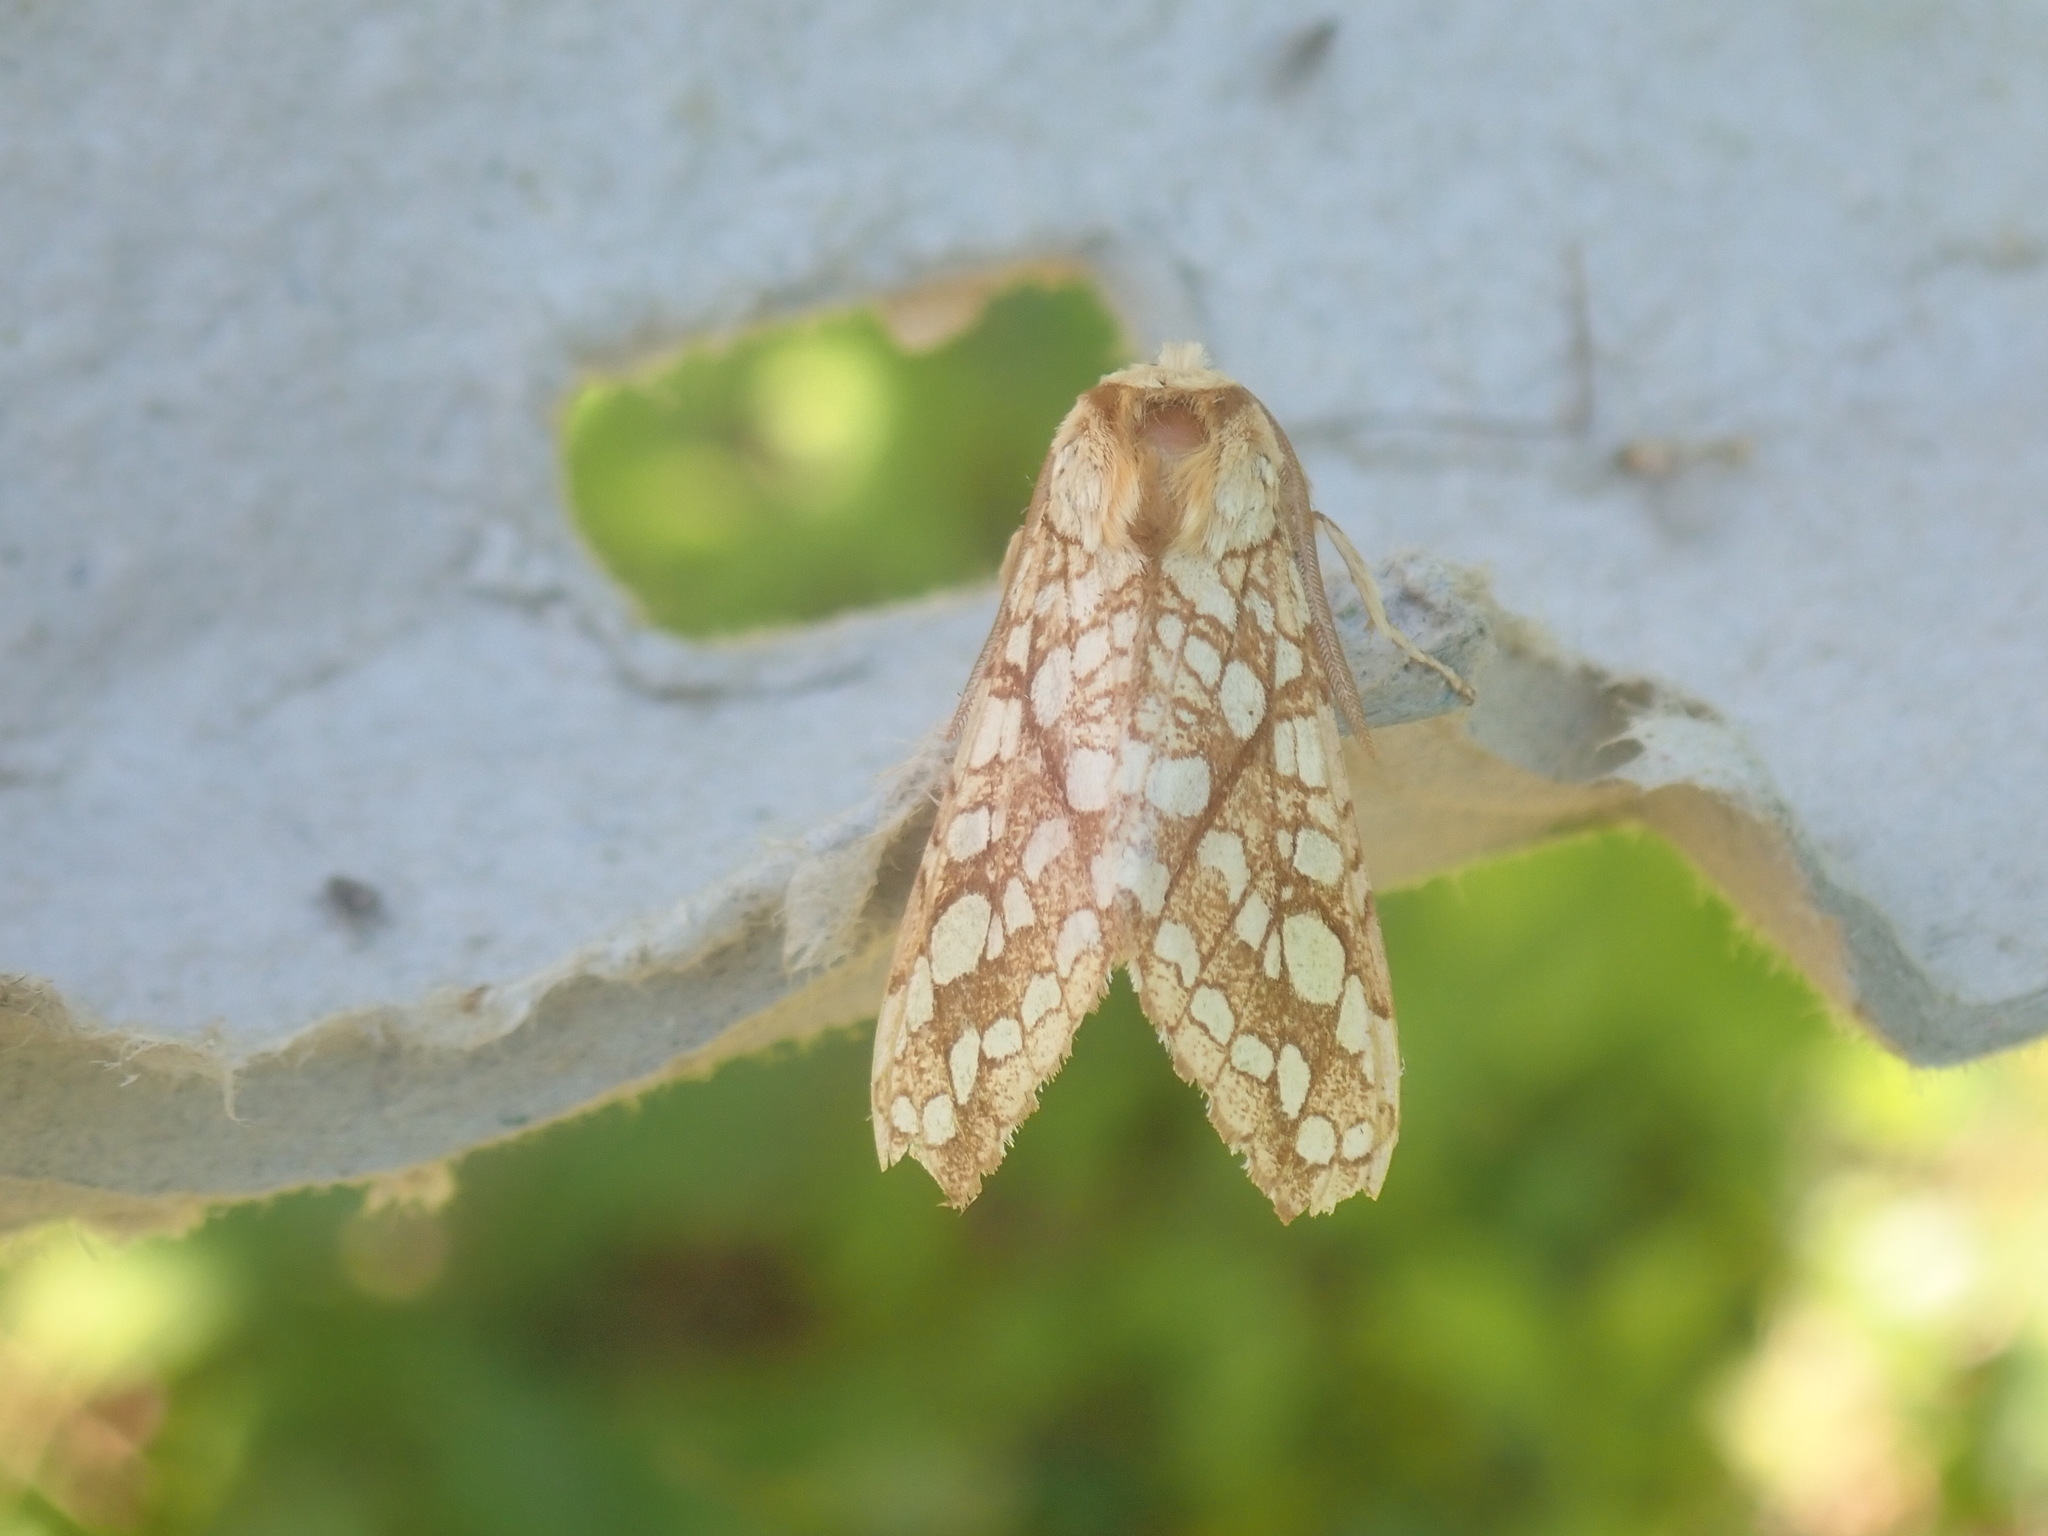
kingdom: Animalia
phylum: Arthropoda
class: Insecta
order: Lepidoptera
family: Erebidae
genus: Lophocampa
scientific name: Lophocampa caryae
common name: Hickory tussock moth
